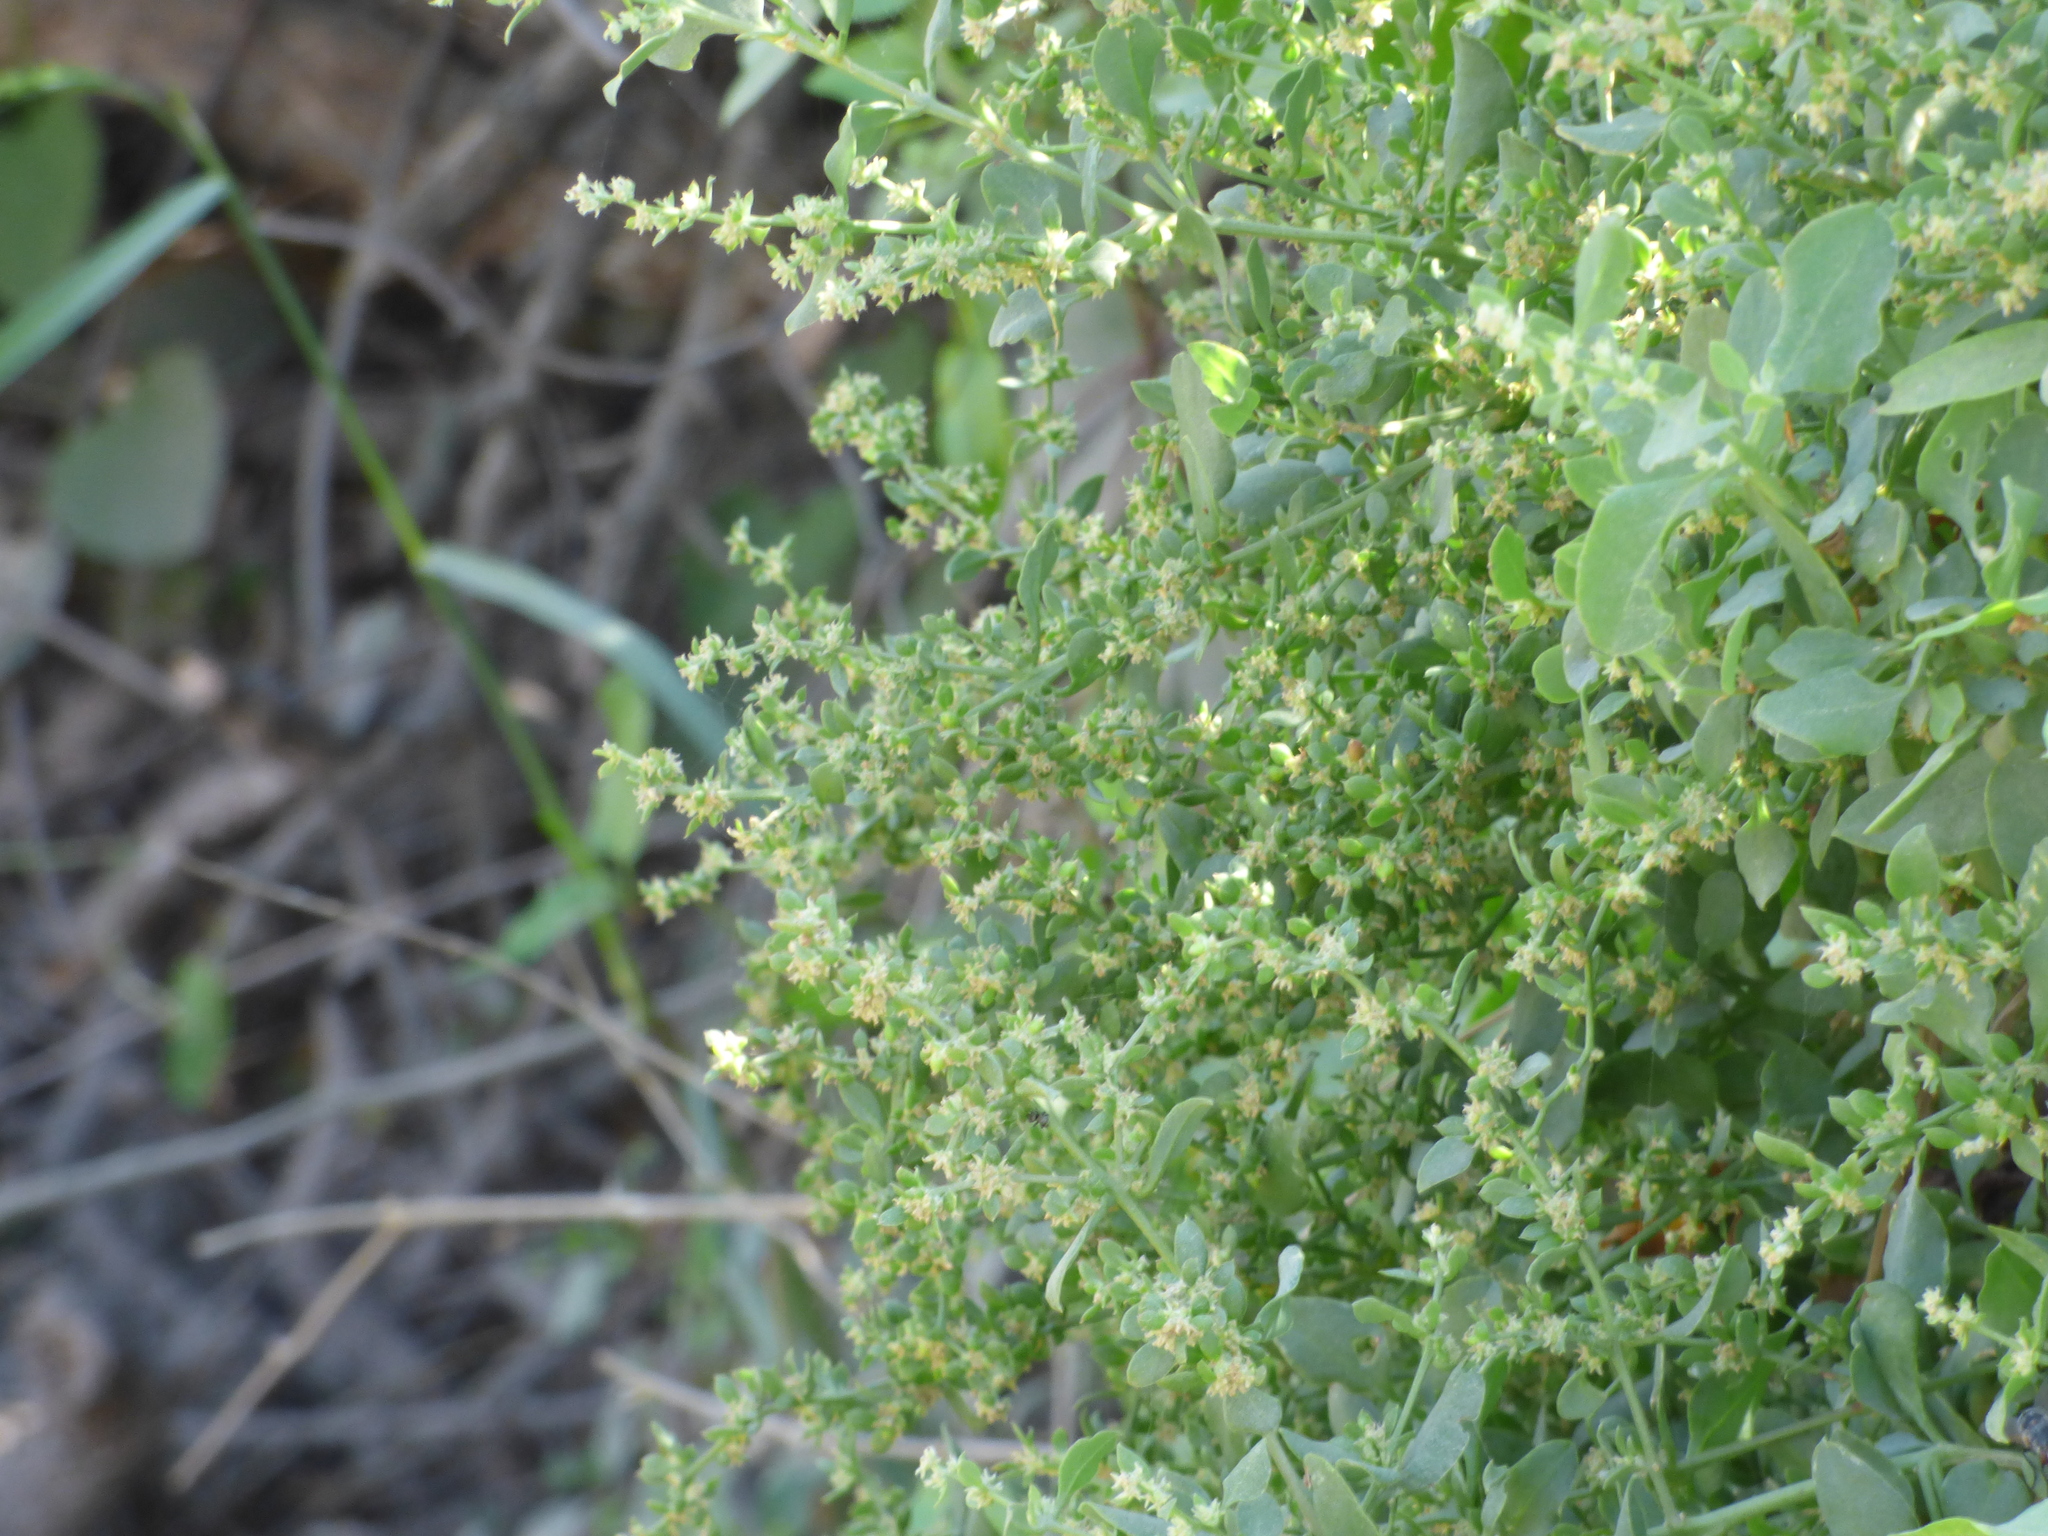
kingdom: Plantae
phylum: Tracheophyta
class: Magnoliopsida
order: Caryophyllales
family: Amaranthaceae
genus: Holmbergia
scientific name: Holmbergia tweedii
